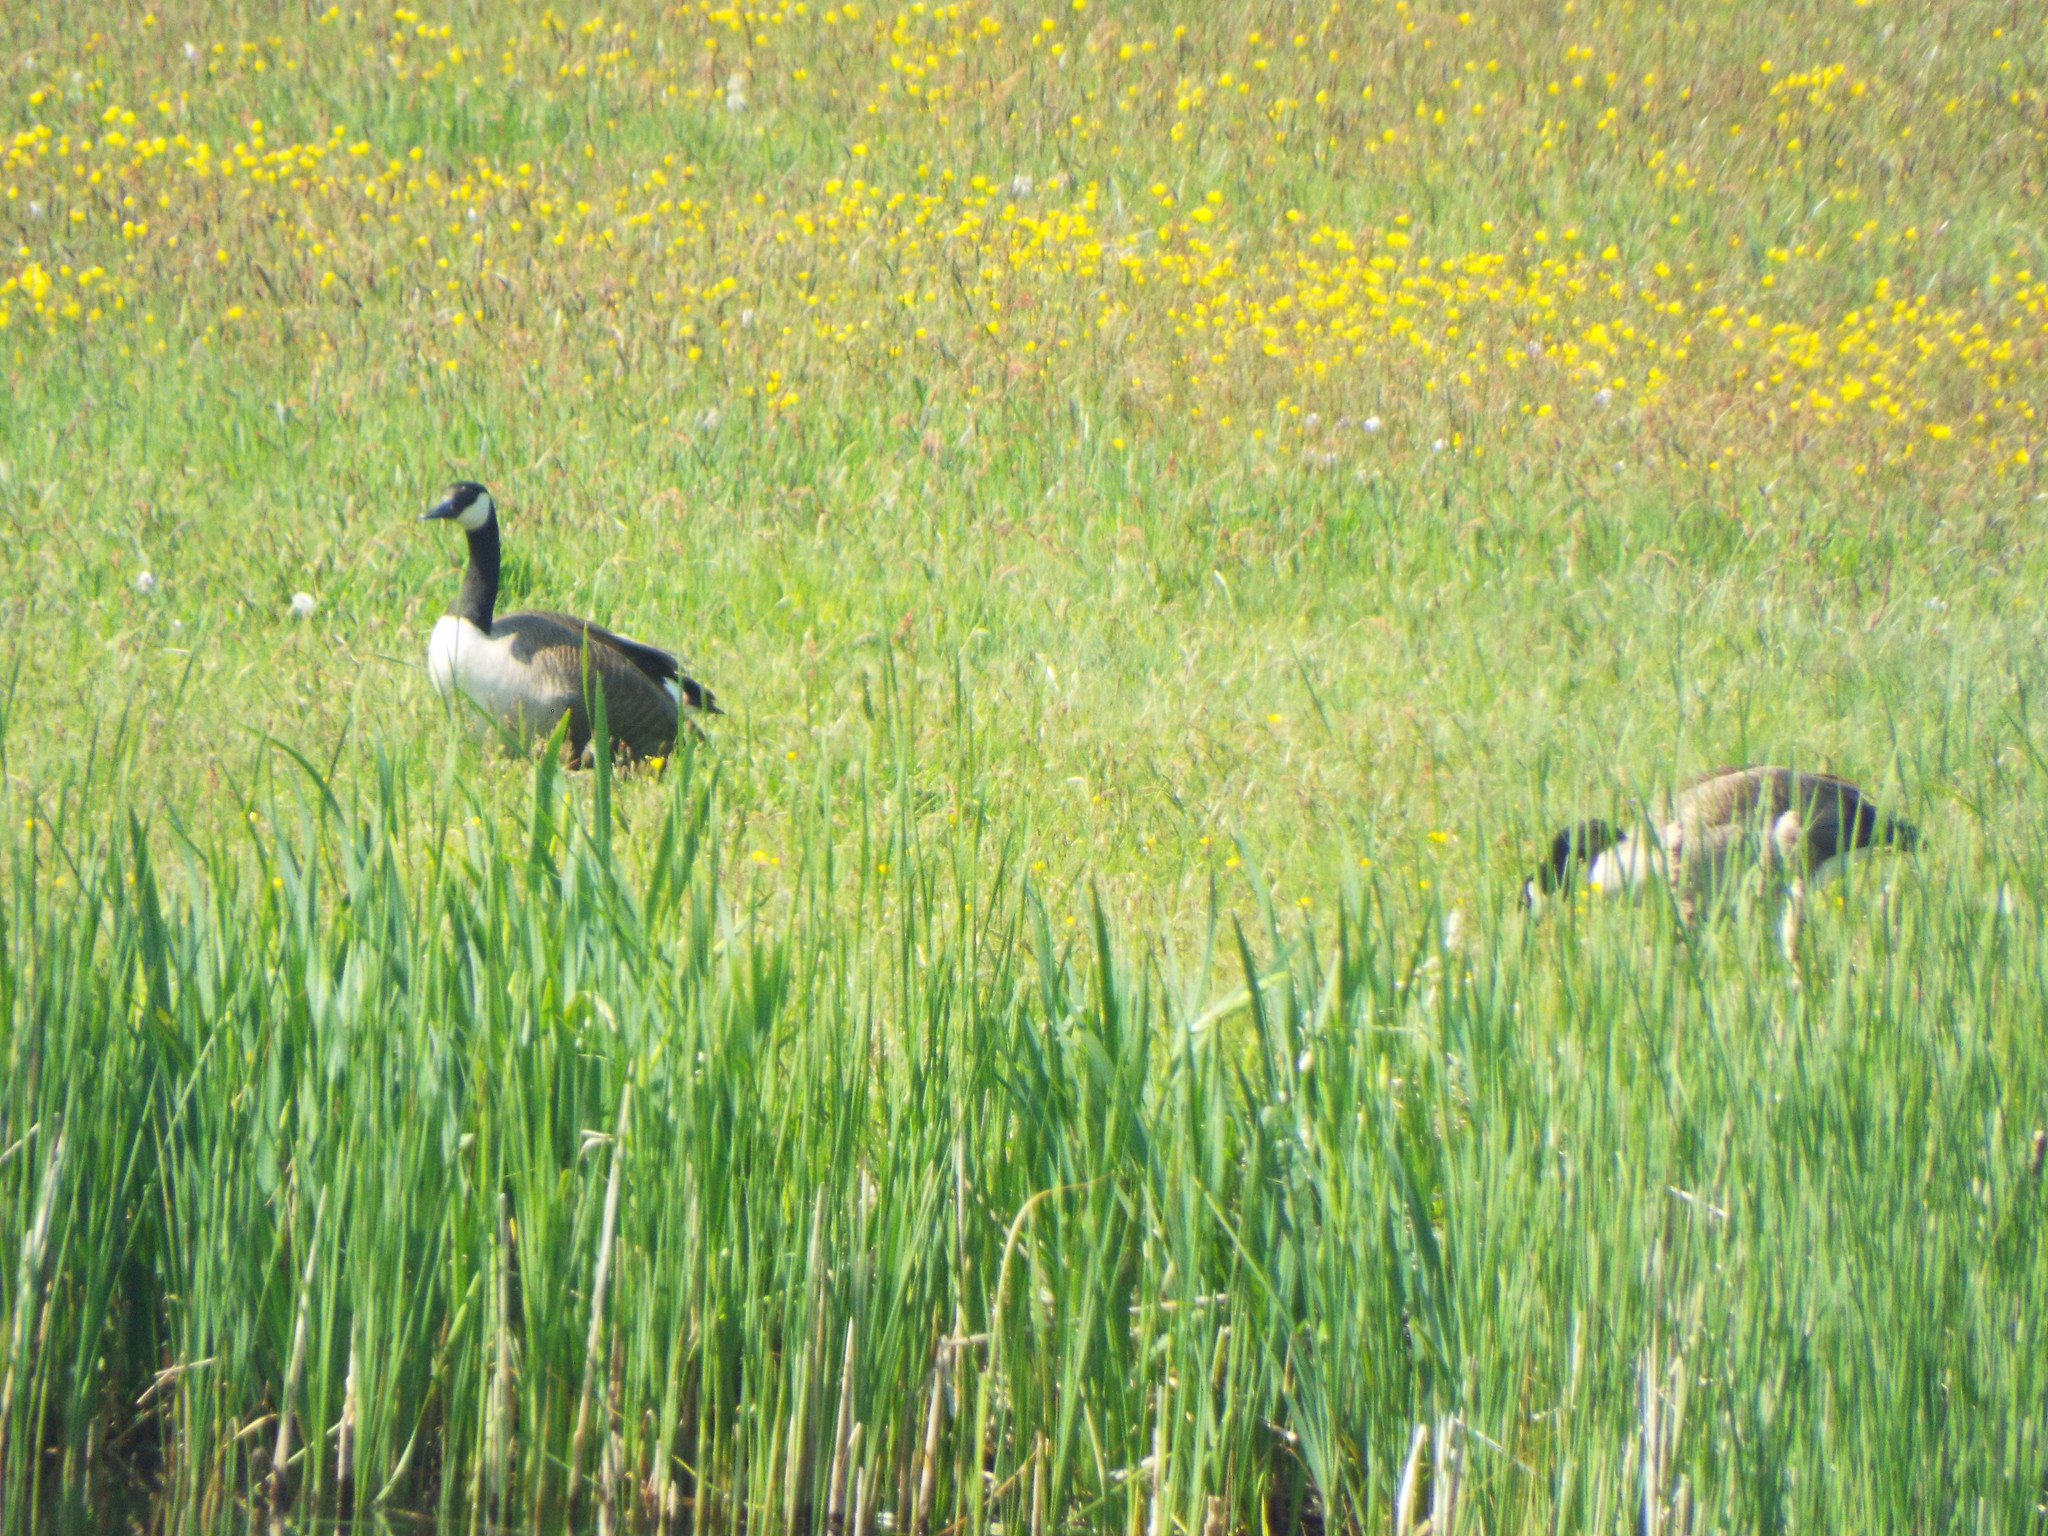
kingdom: Animalia
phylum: Chordata
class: Aves
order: Anseriformes
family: Anatidae
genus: Branta
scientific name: Branta canadensis
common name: Canada goose
